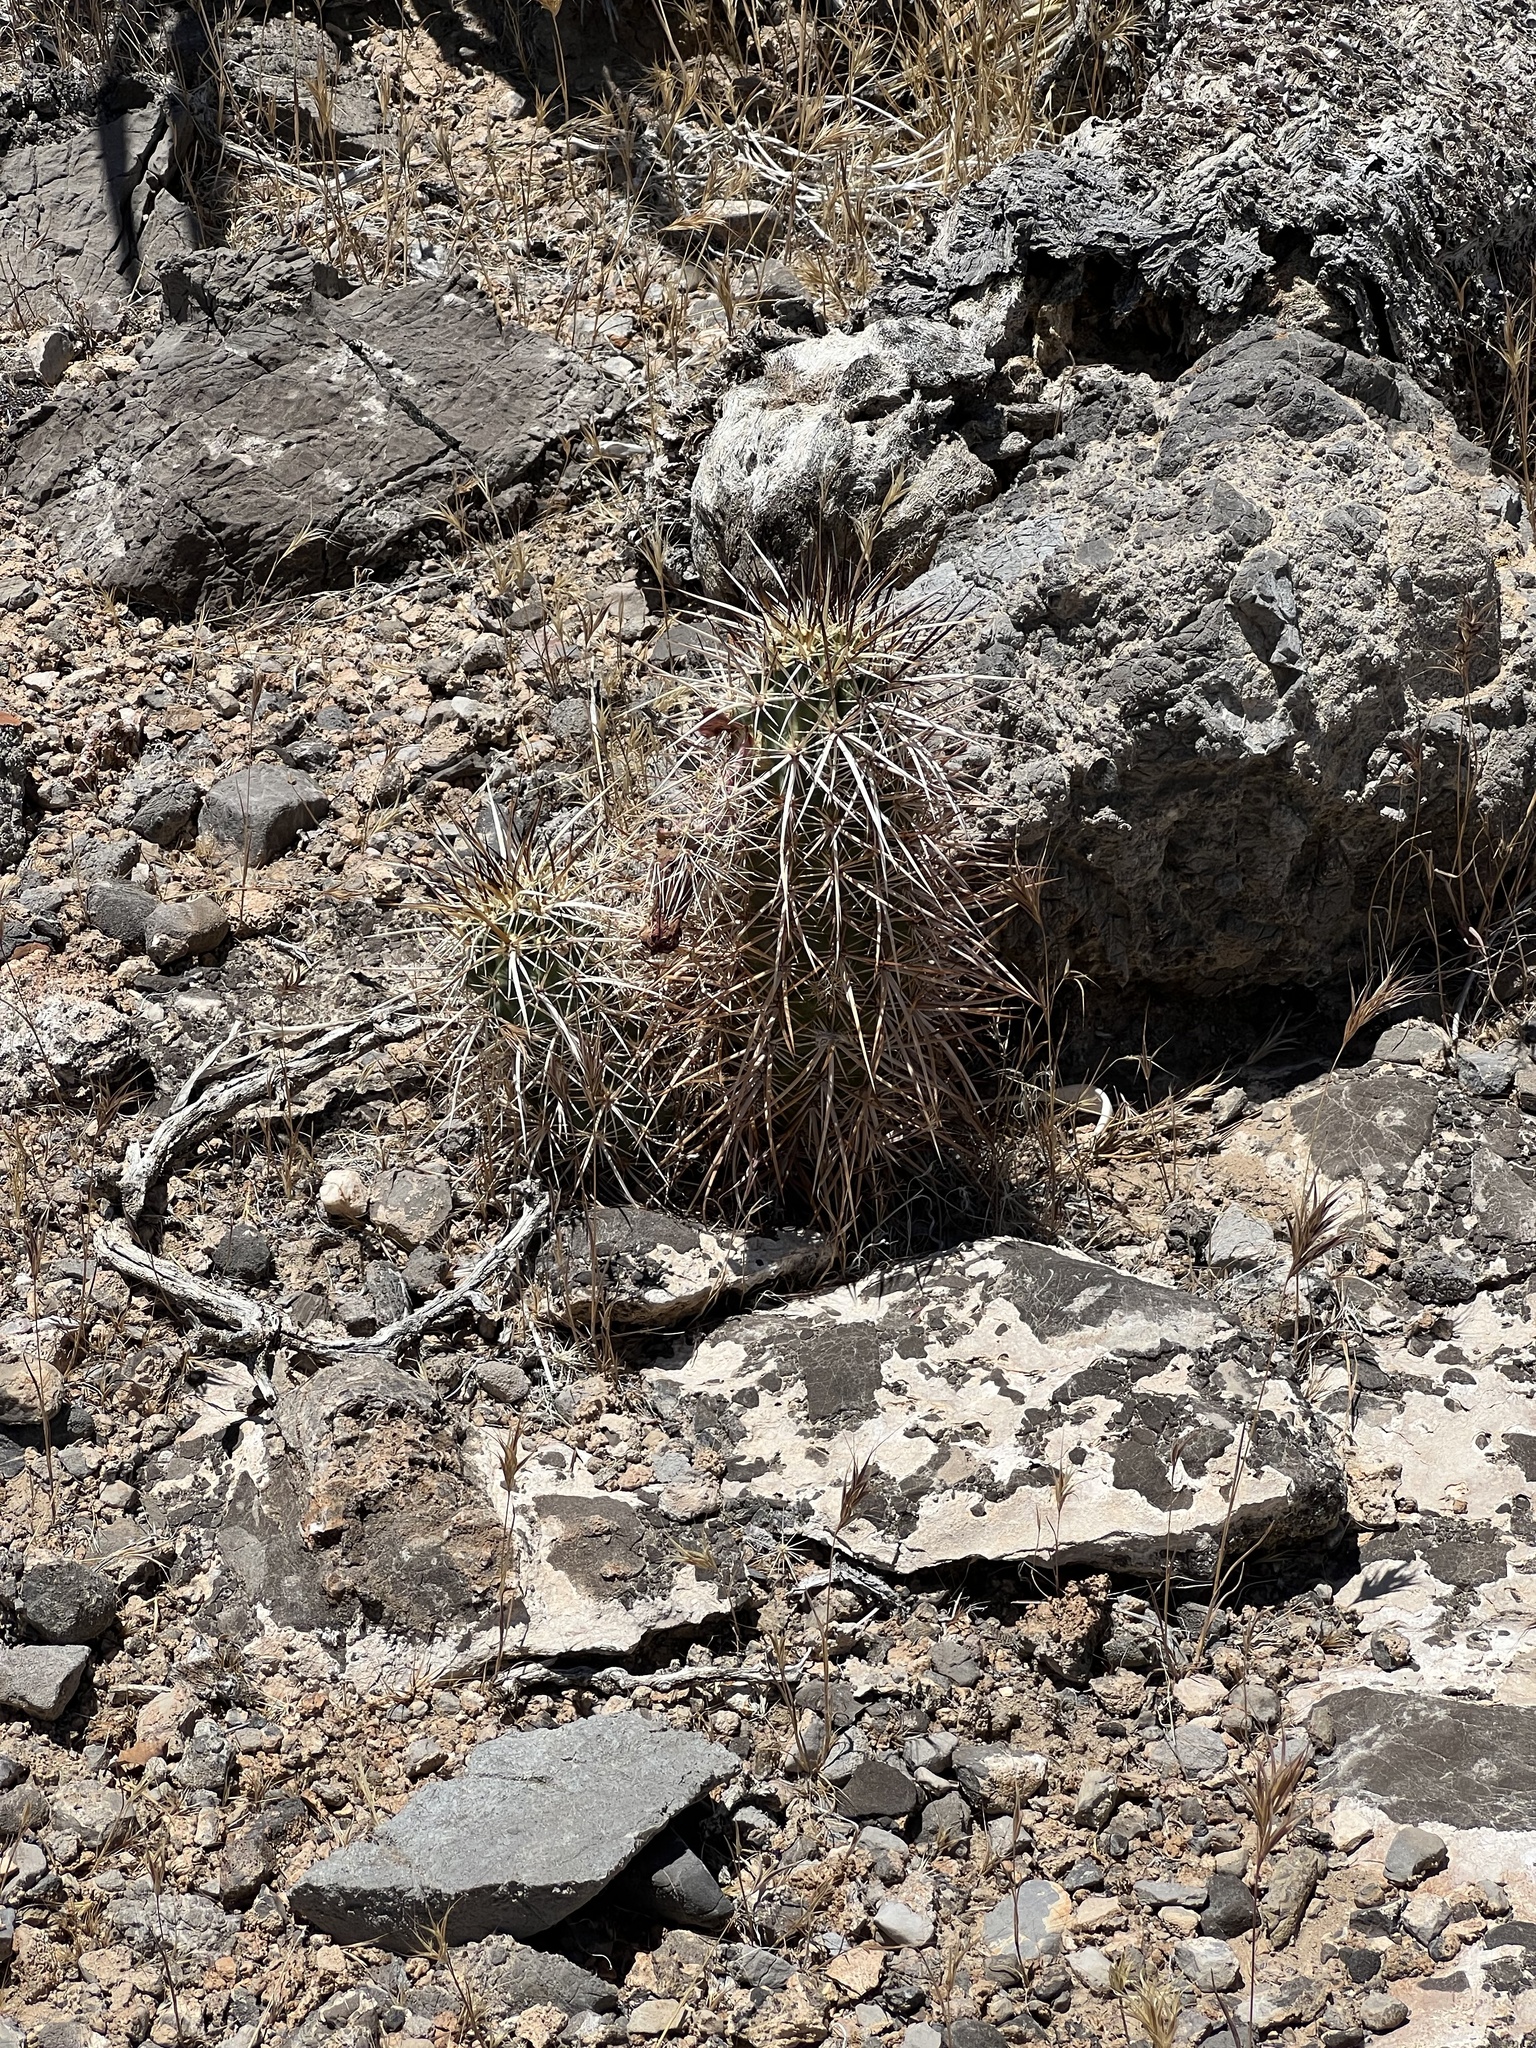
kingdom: Plantae
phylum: Tracheophyta
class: Magnoliopsida
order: Caryophyllales
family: Cactaceae
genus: Echinocereus
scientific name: Echinocereus engelmannii
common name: Engelmann's hedgehog cactus
